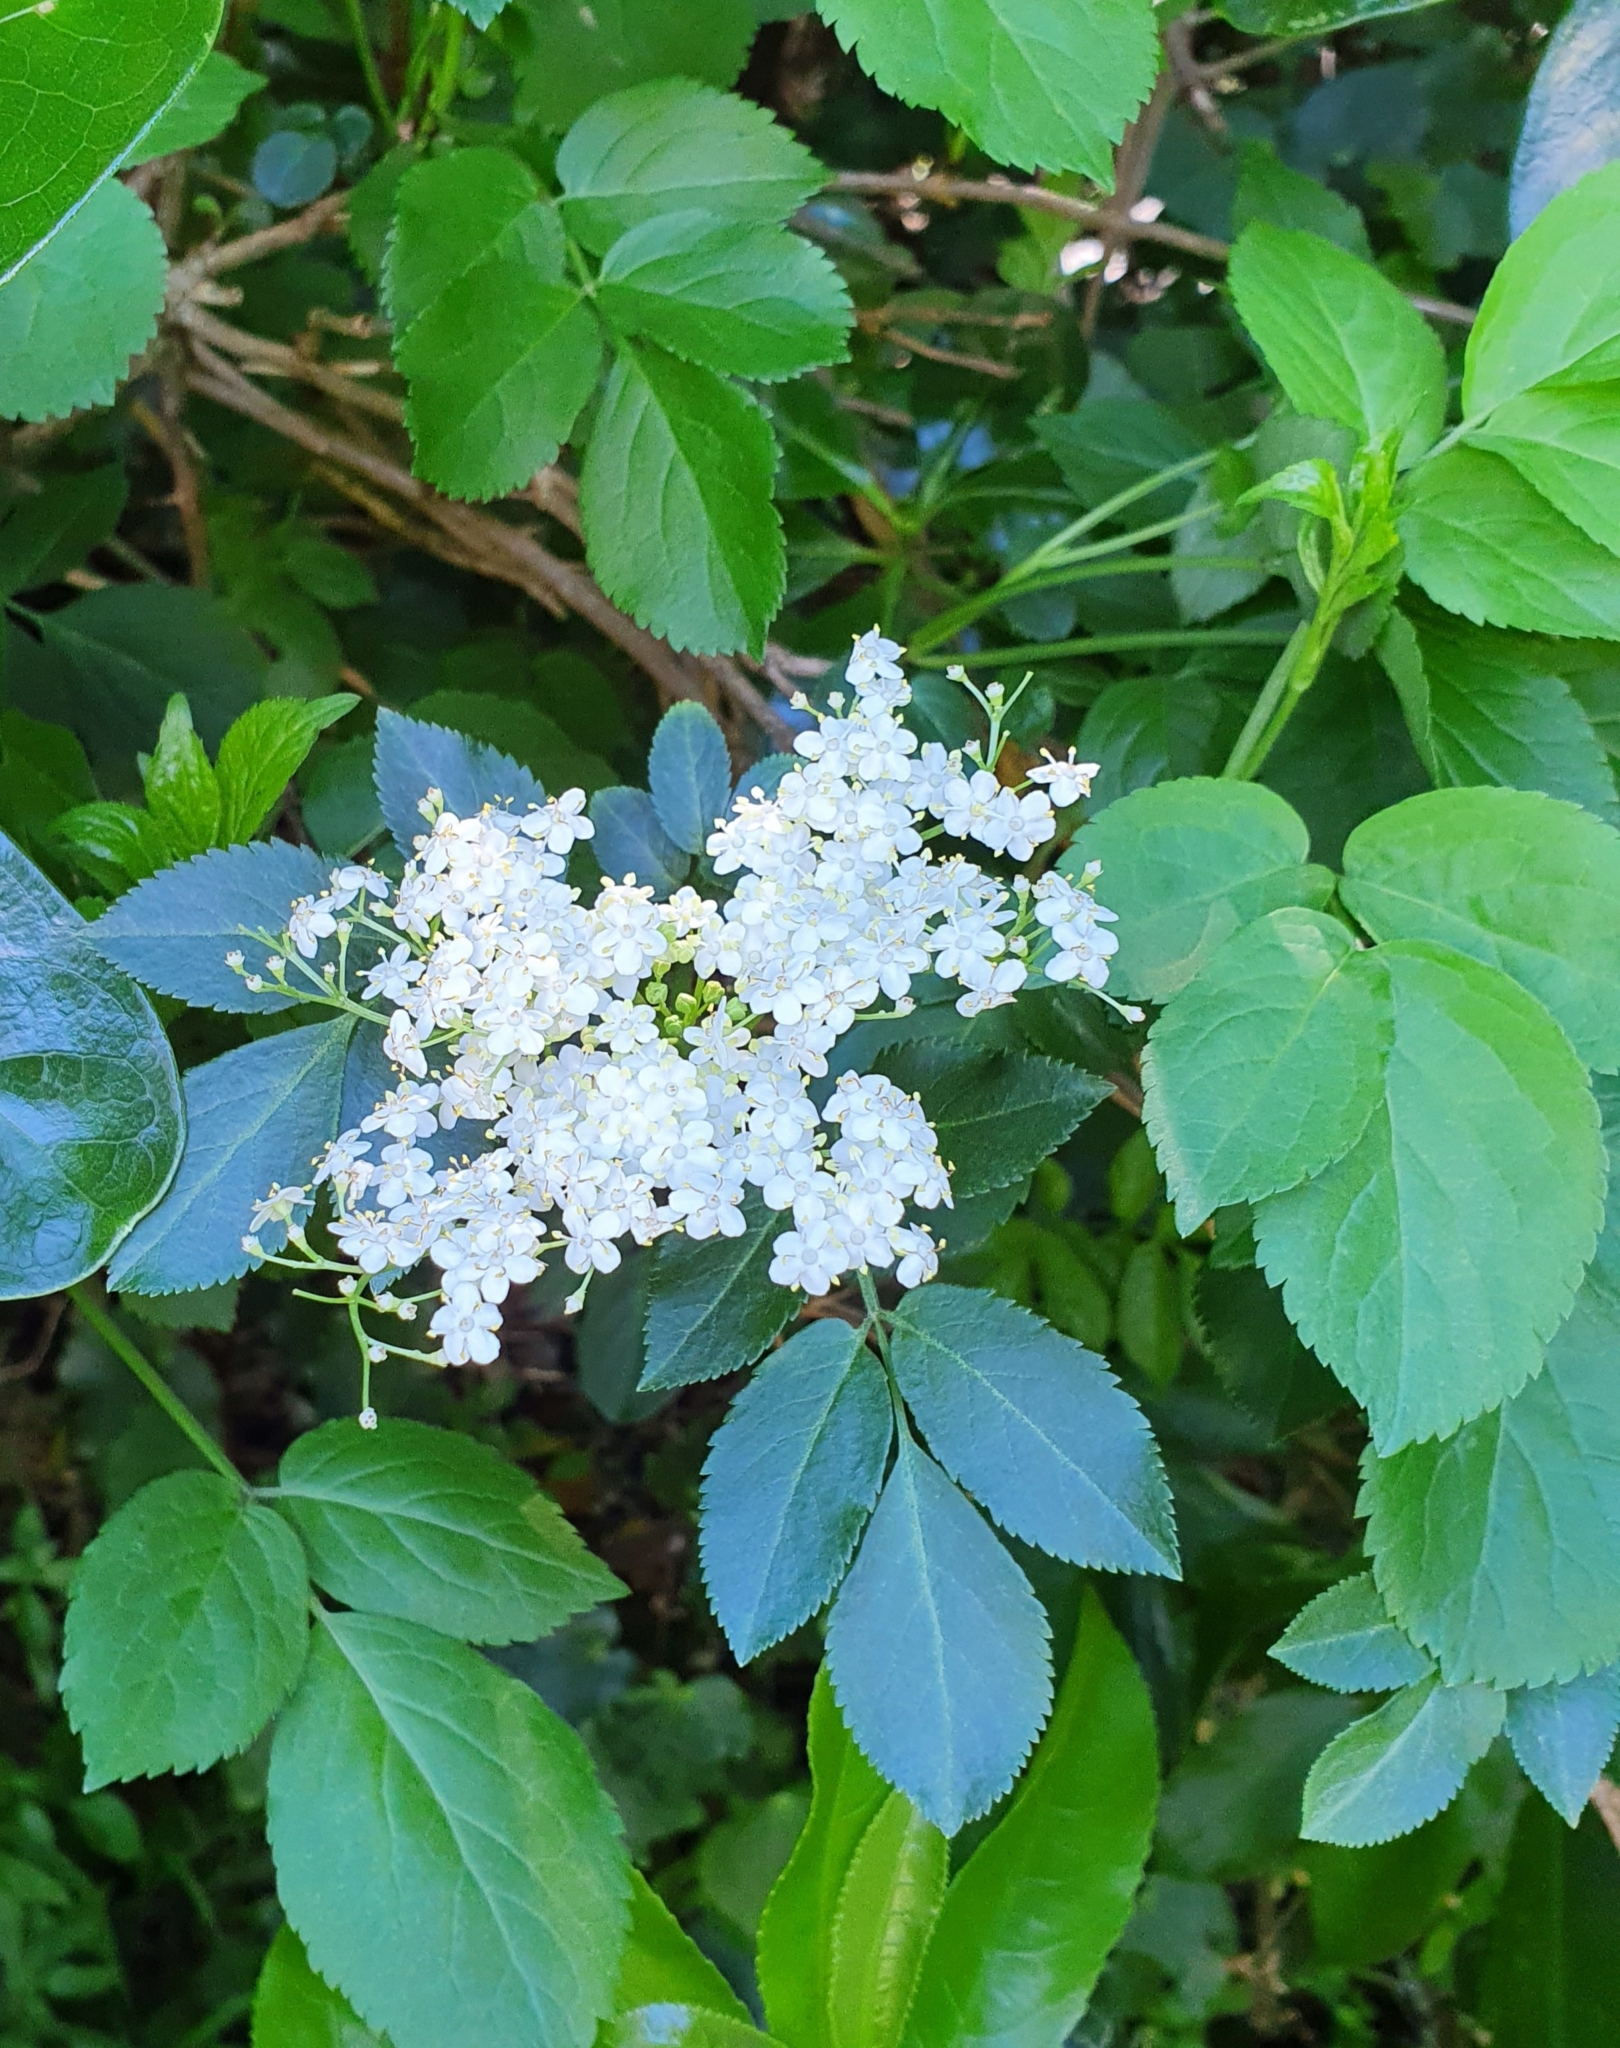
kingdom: Plantae
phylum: Tracheophyta
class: Magnoliopsida
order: Dipsacales
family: Viburnaceae
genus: Sambucus
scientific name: Sambucus nigra
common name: Elder
